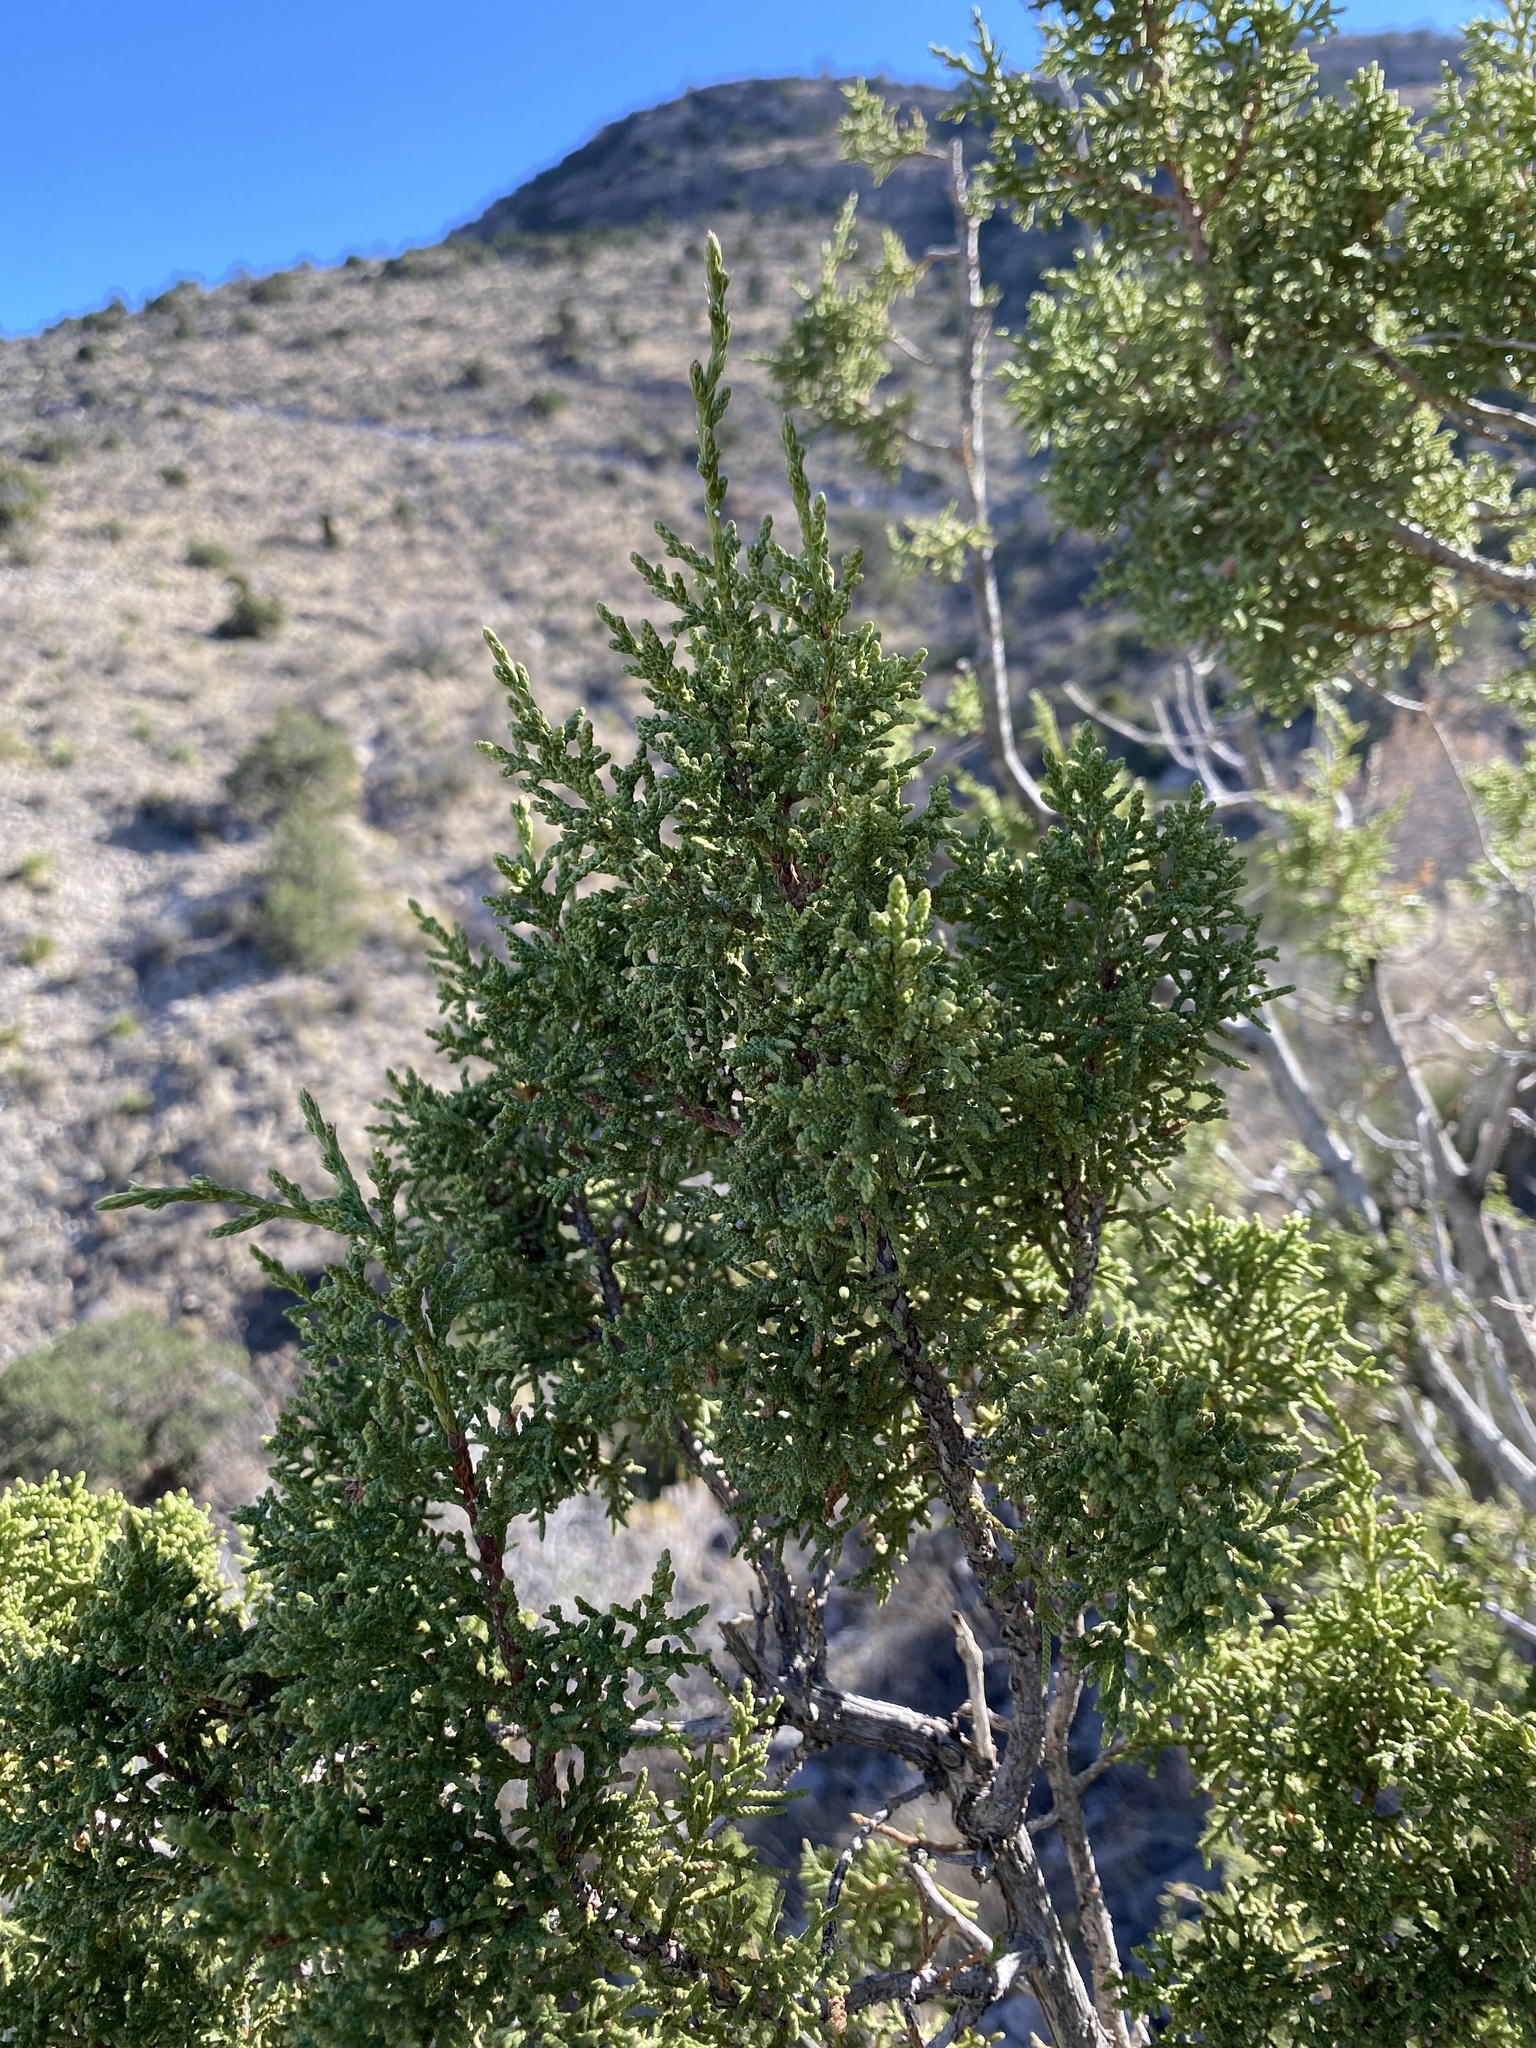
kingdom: Plantae
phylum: Tracheophyta
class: Pinopsida
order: Pinales
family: Cupressaceae
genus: Juniperus
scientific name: Juniperus monosperma
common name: One-seed juniper
